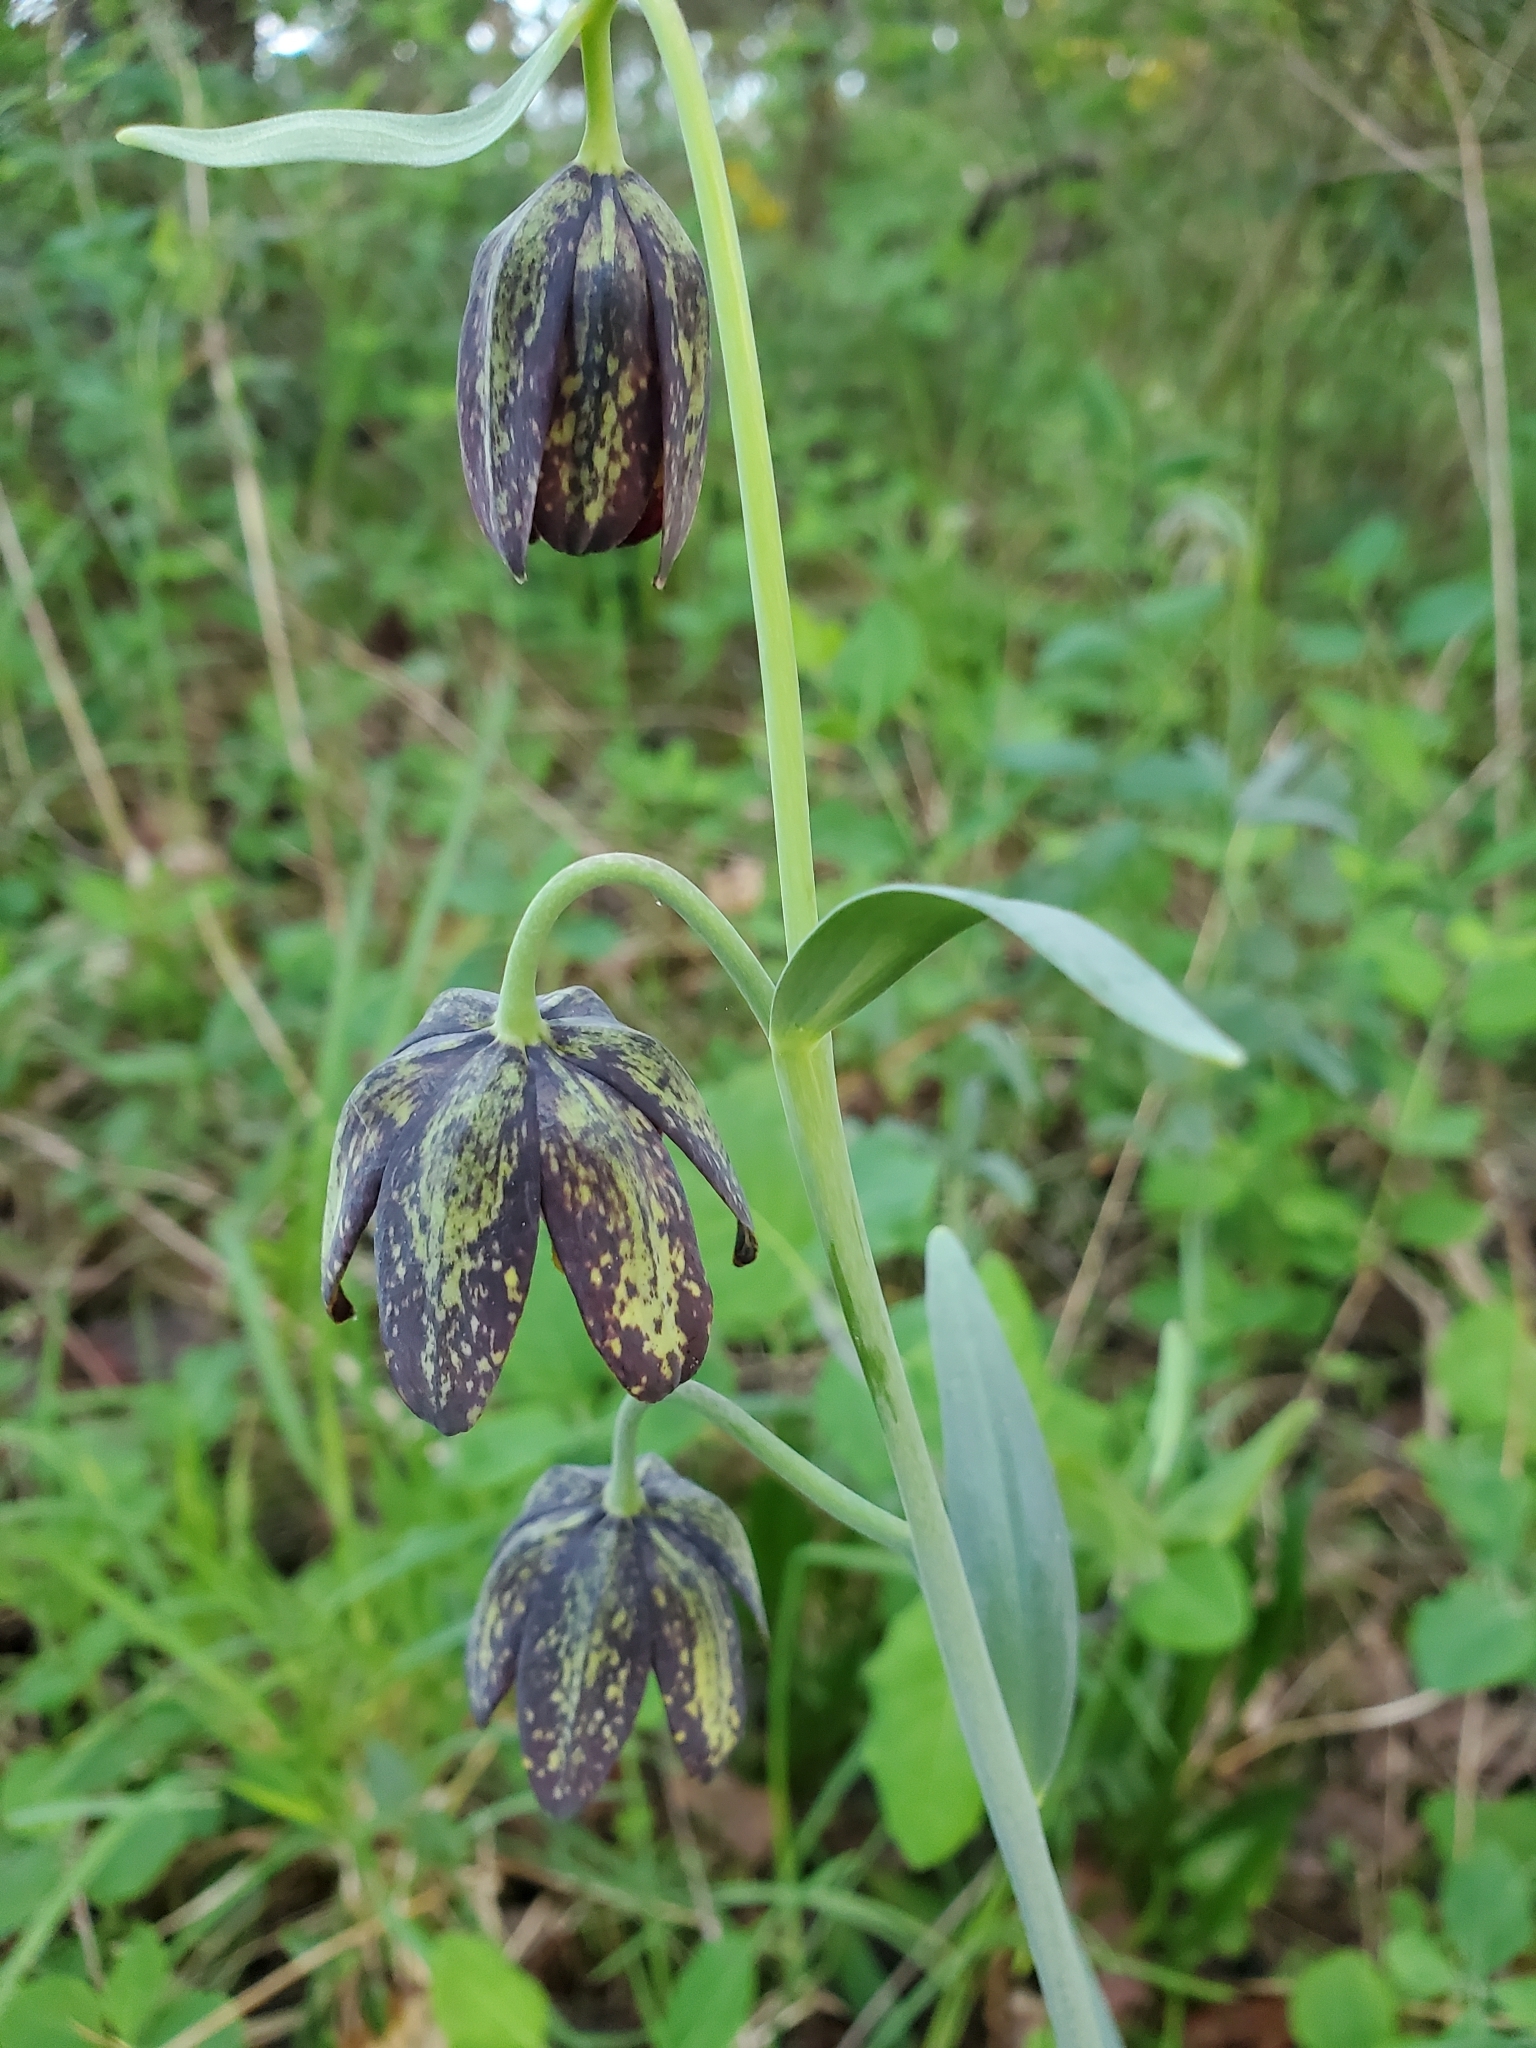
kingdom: Plantae
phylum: Tracheophyta
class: Liliopsida
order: Liliales
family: Liliaceae
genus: Fritillaria
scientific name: Fritillaria affinis
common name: Ojai fritillary
